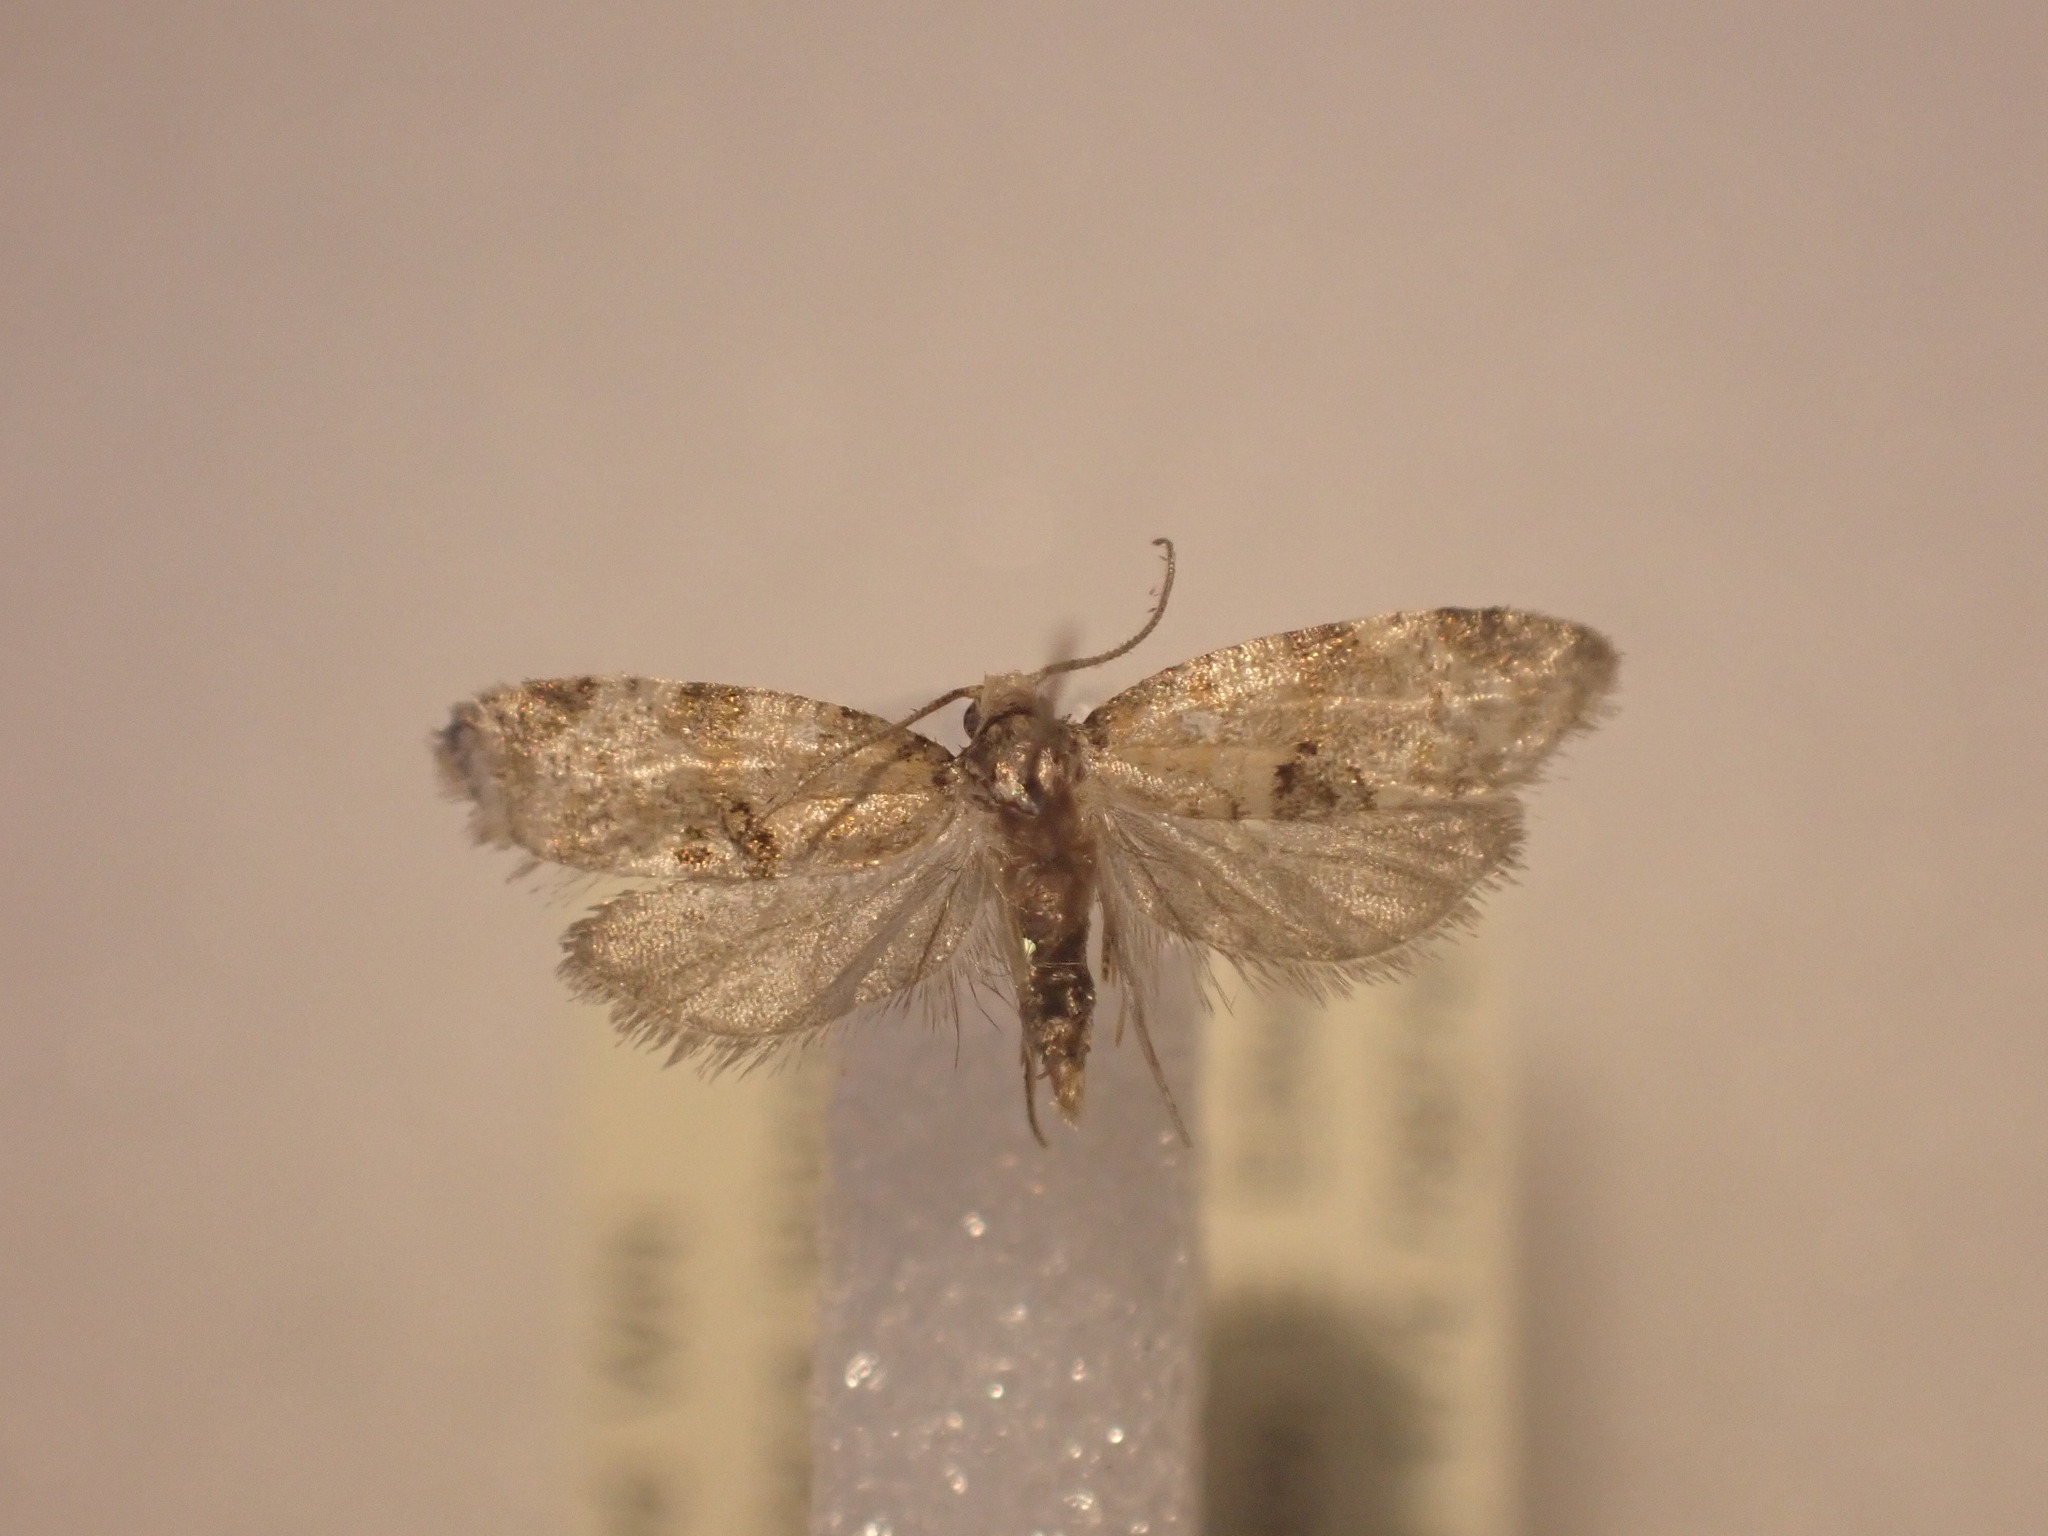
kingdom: Animalia
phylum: Arthropoda
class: Insecta
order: Lepidoptera
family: Tortricidae
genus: Dipterina
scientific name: Dipterina imbriferana
